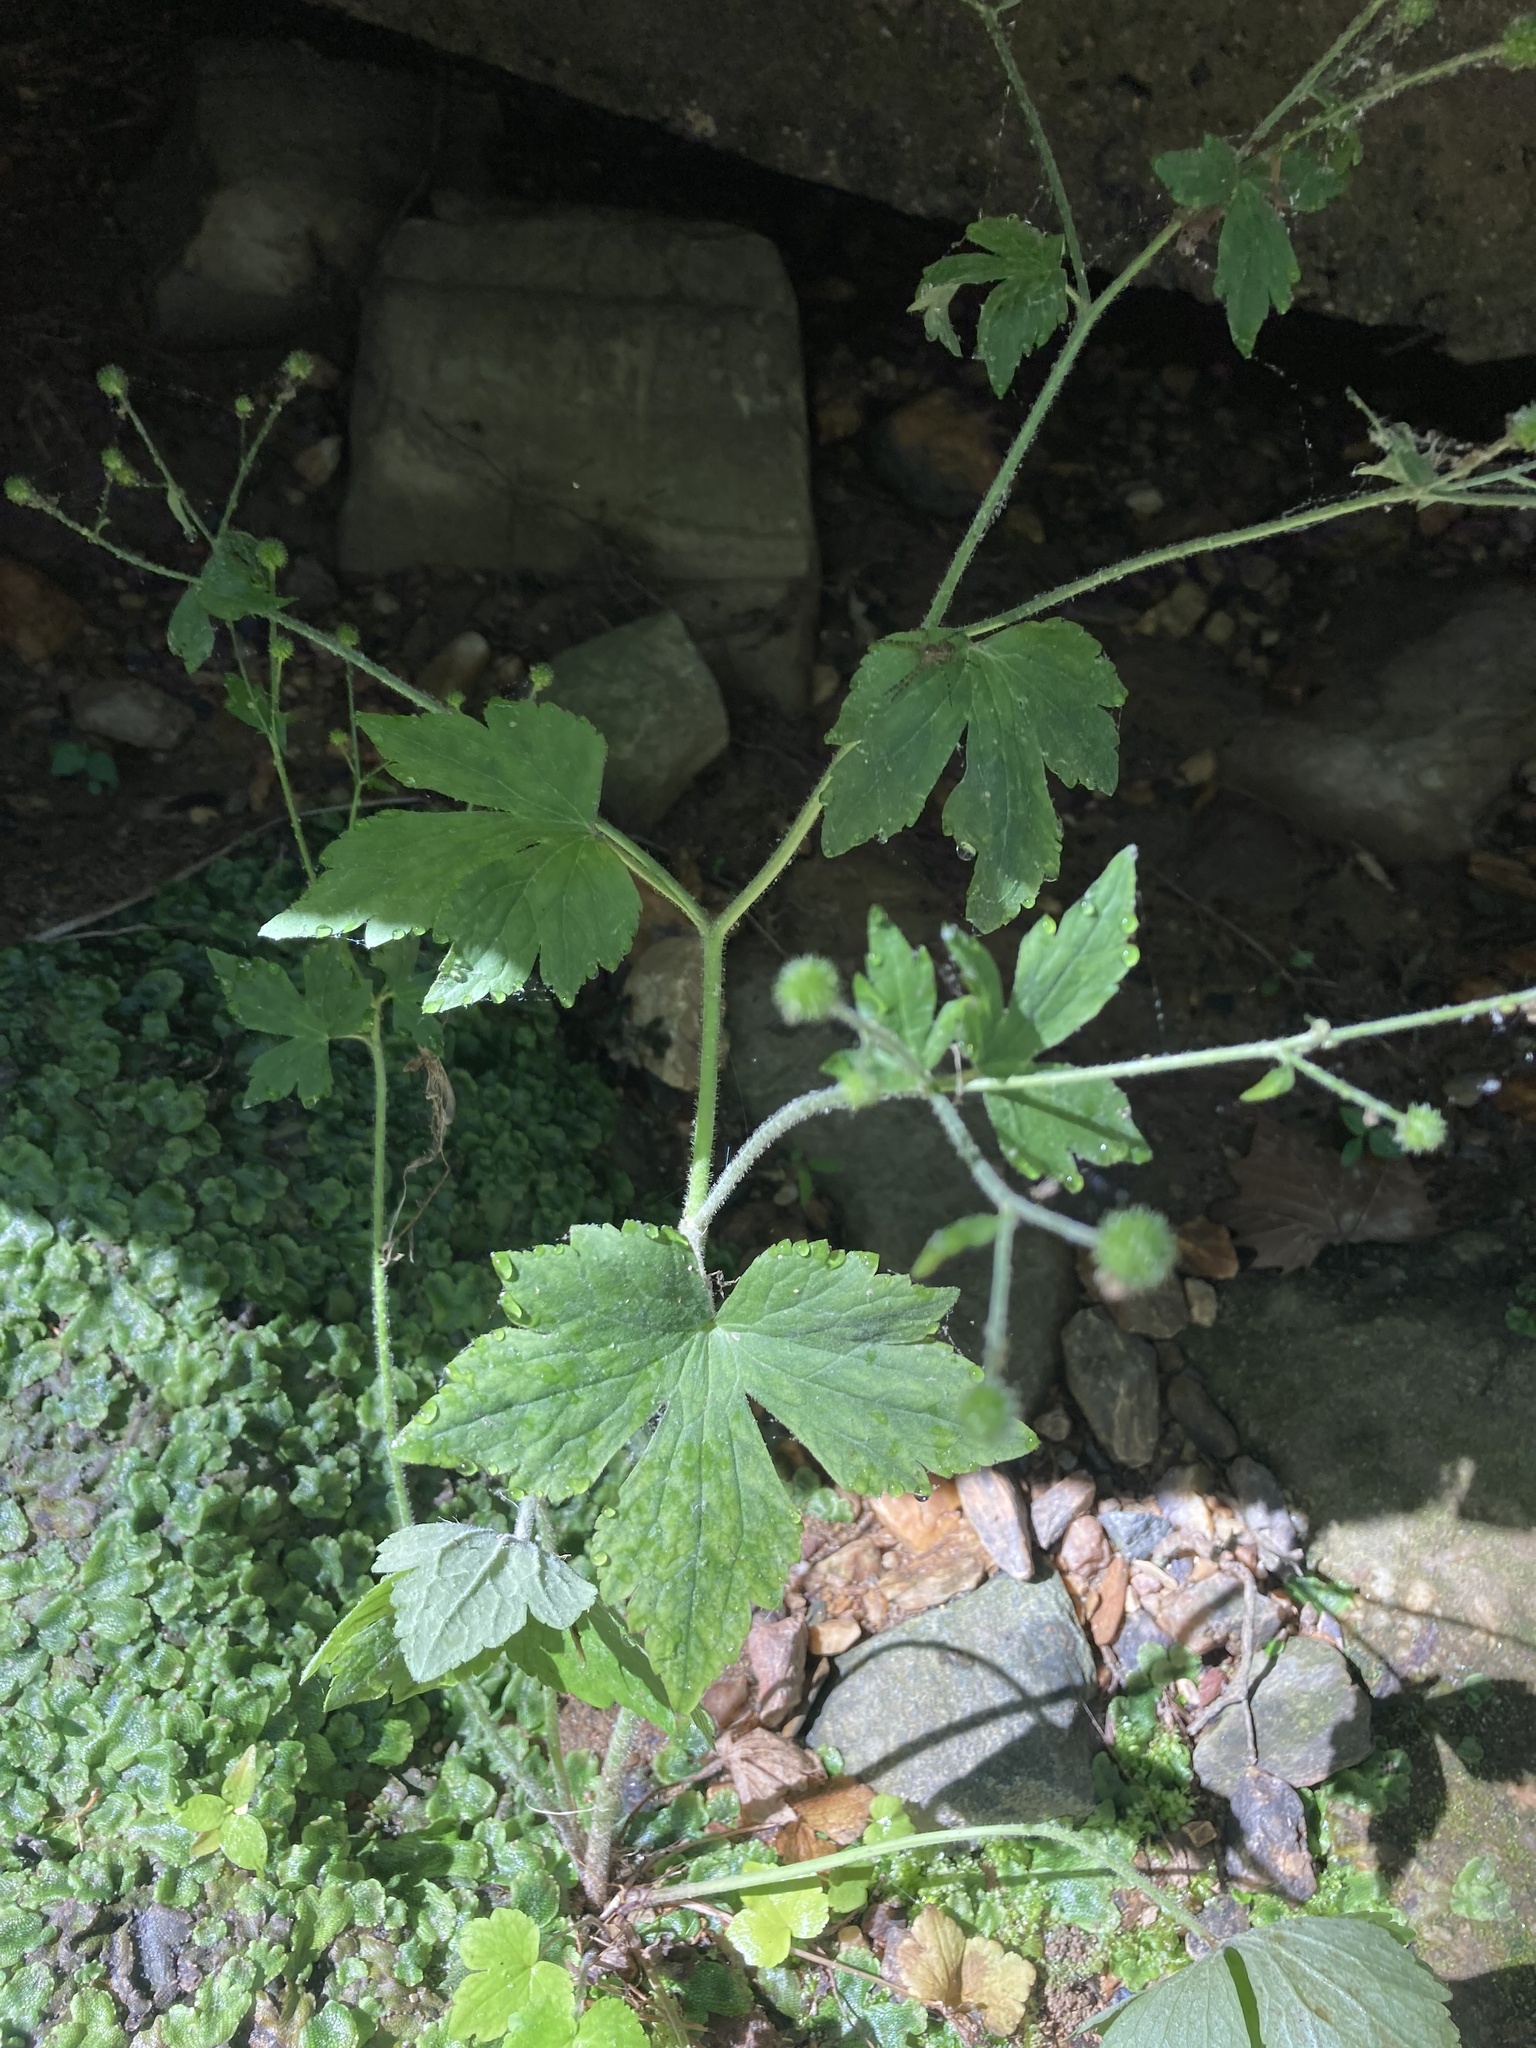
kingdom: Plantae
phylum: Tracheophyta
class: Magnoliopsida
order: Ranunculales
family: Ranunculaceae
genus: Ranunculus
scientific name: Ranunculus recurvatus
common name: Blisterwort
